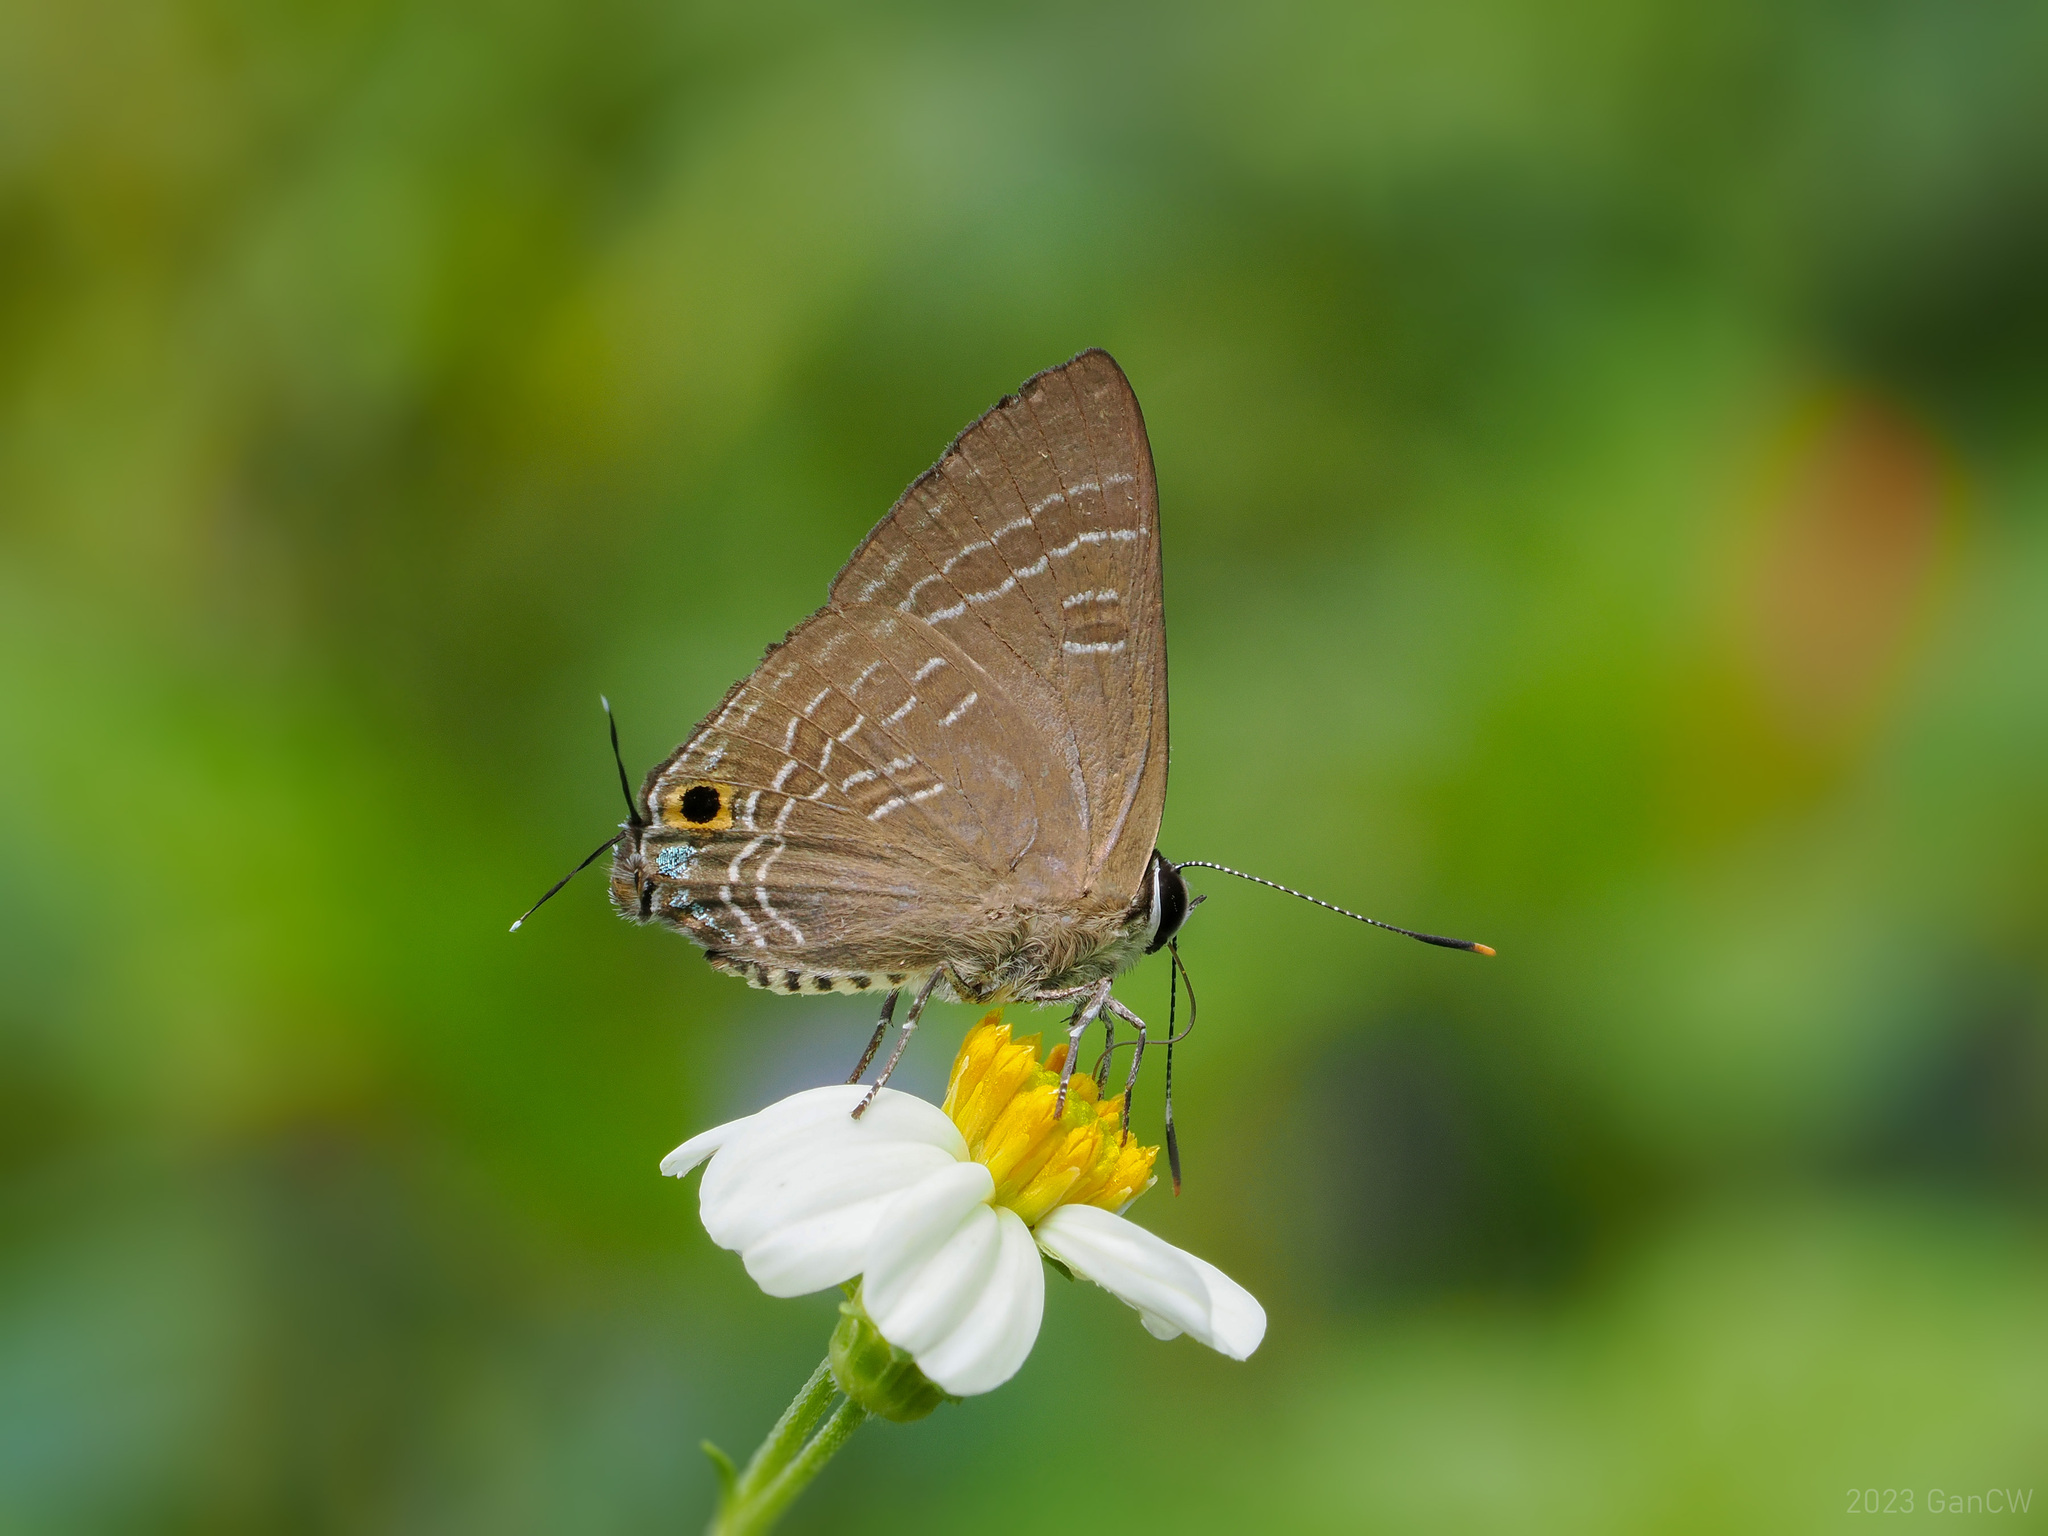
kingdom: Animalia
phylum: Arthropoda
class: Insecta
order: Lepidoptera
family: Lycaenidae
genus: Deudorix
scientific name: Deudorix epijarbas
